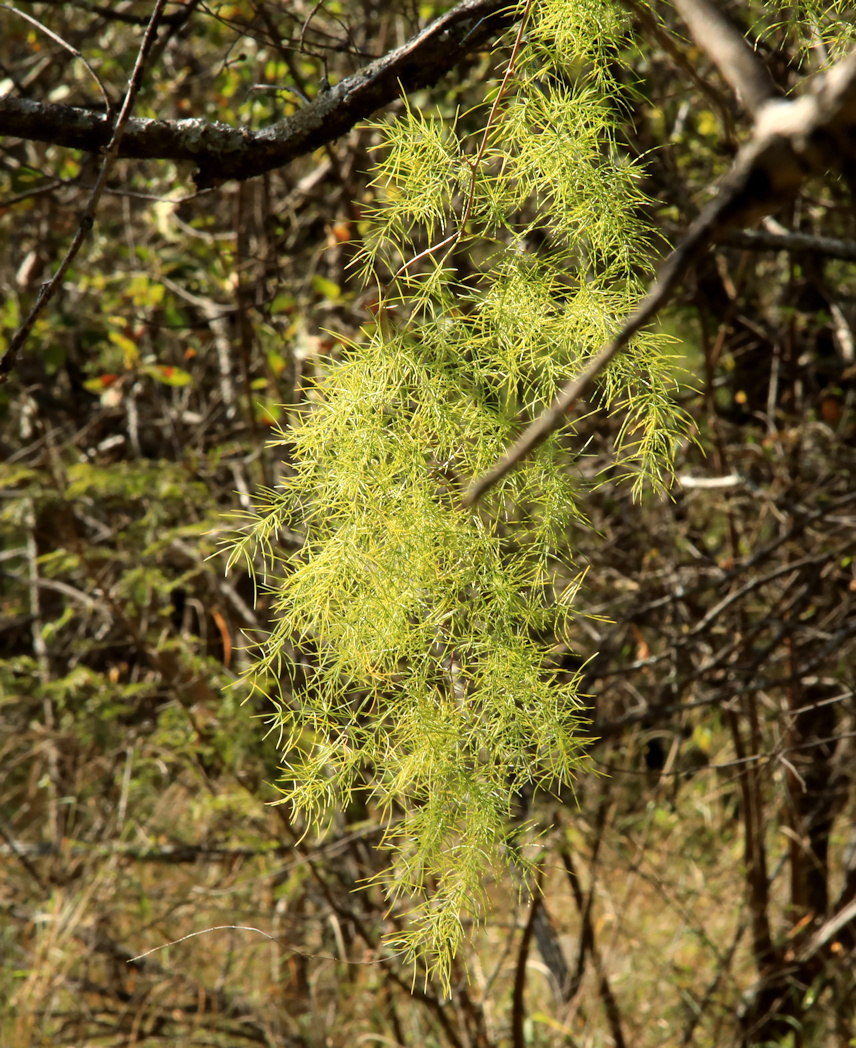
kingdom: Plantae
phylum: Tracheophyta
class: Liliopsida
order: Asparagales
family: Asparagaceae
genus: Asparagus
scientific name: Asparagus buchananii
